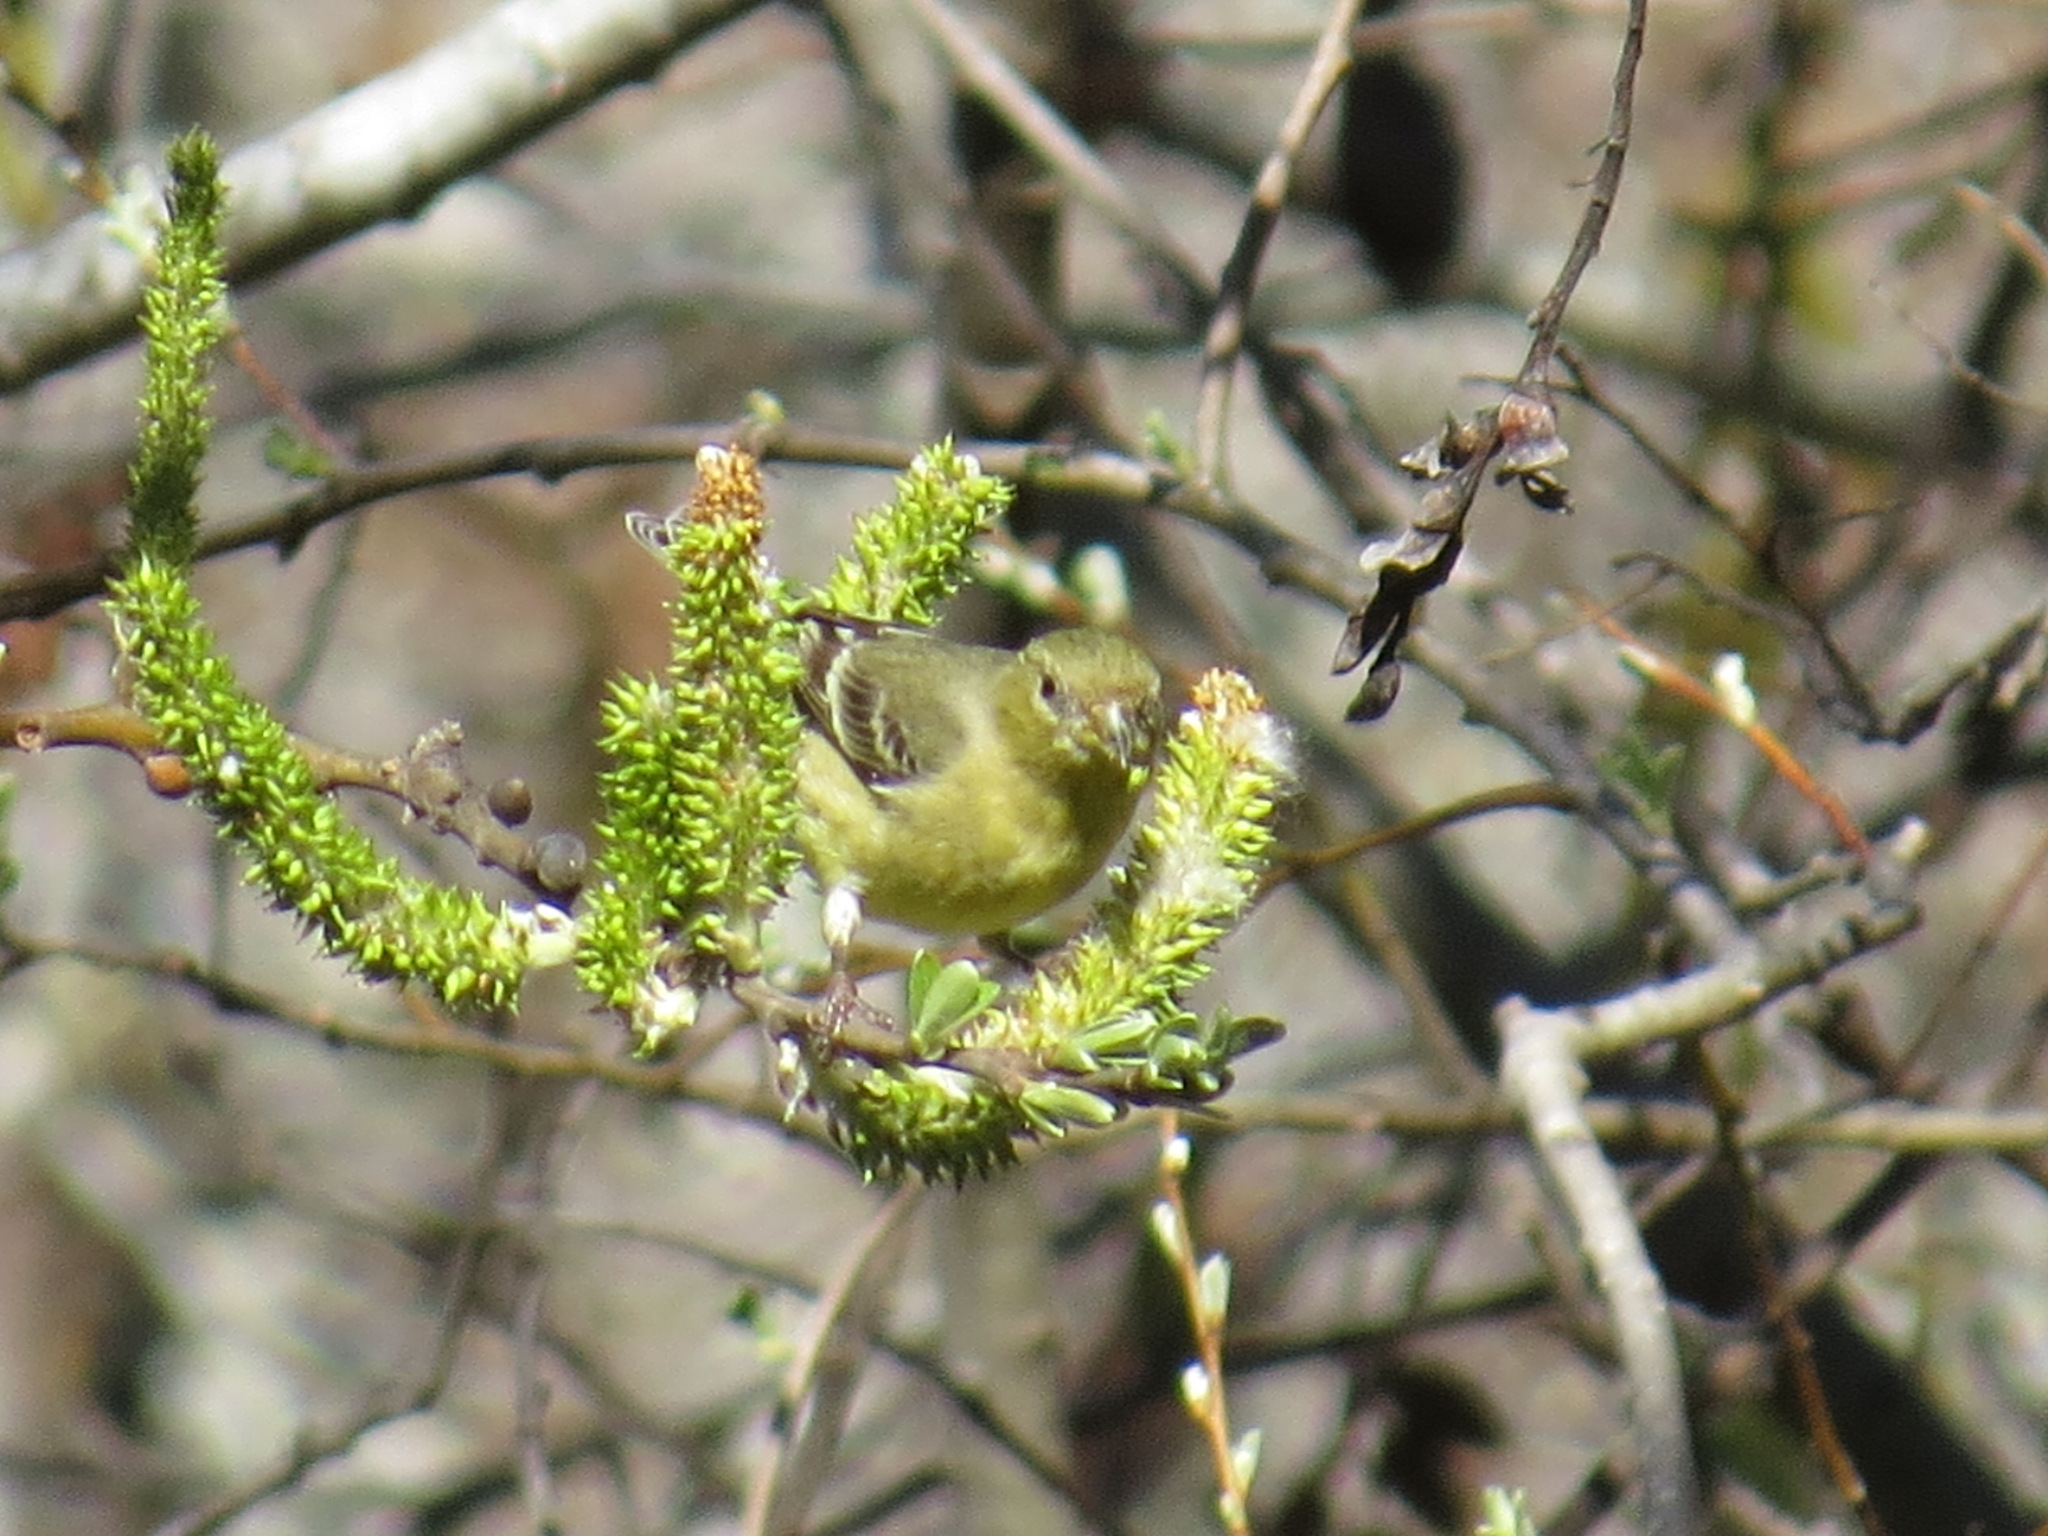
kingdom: Animalia
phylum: Chordata
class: Aves
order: Passeriformes
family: Fringillidae
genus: Spinus
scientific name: Spinus psaltria
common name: Lesser goldfinch
